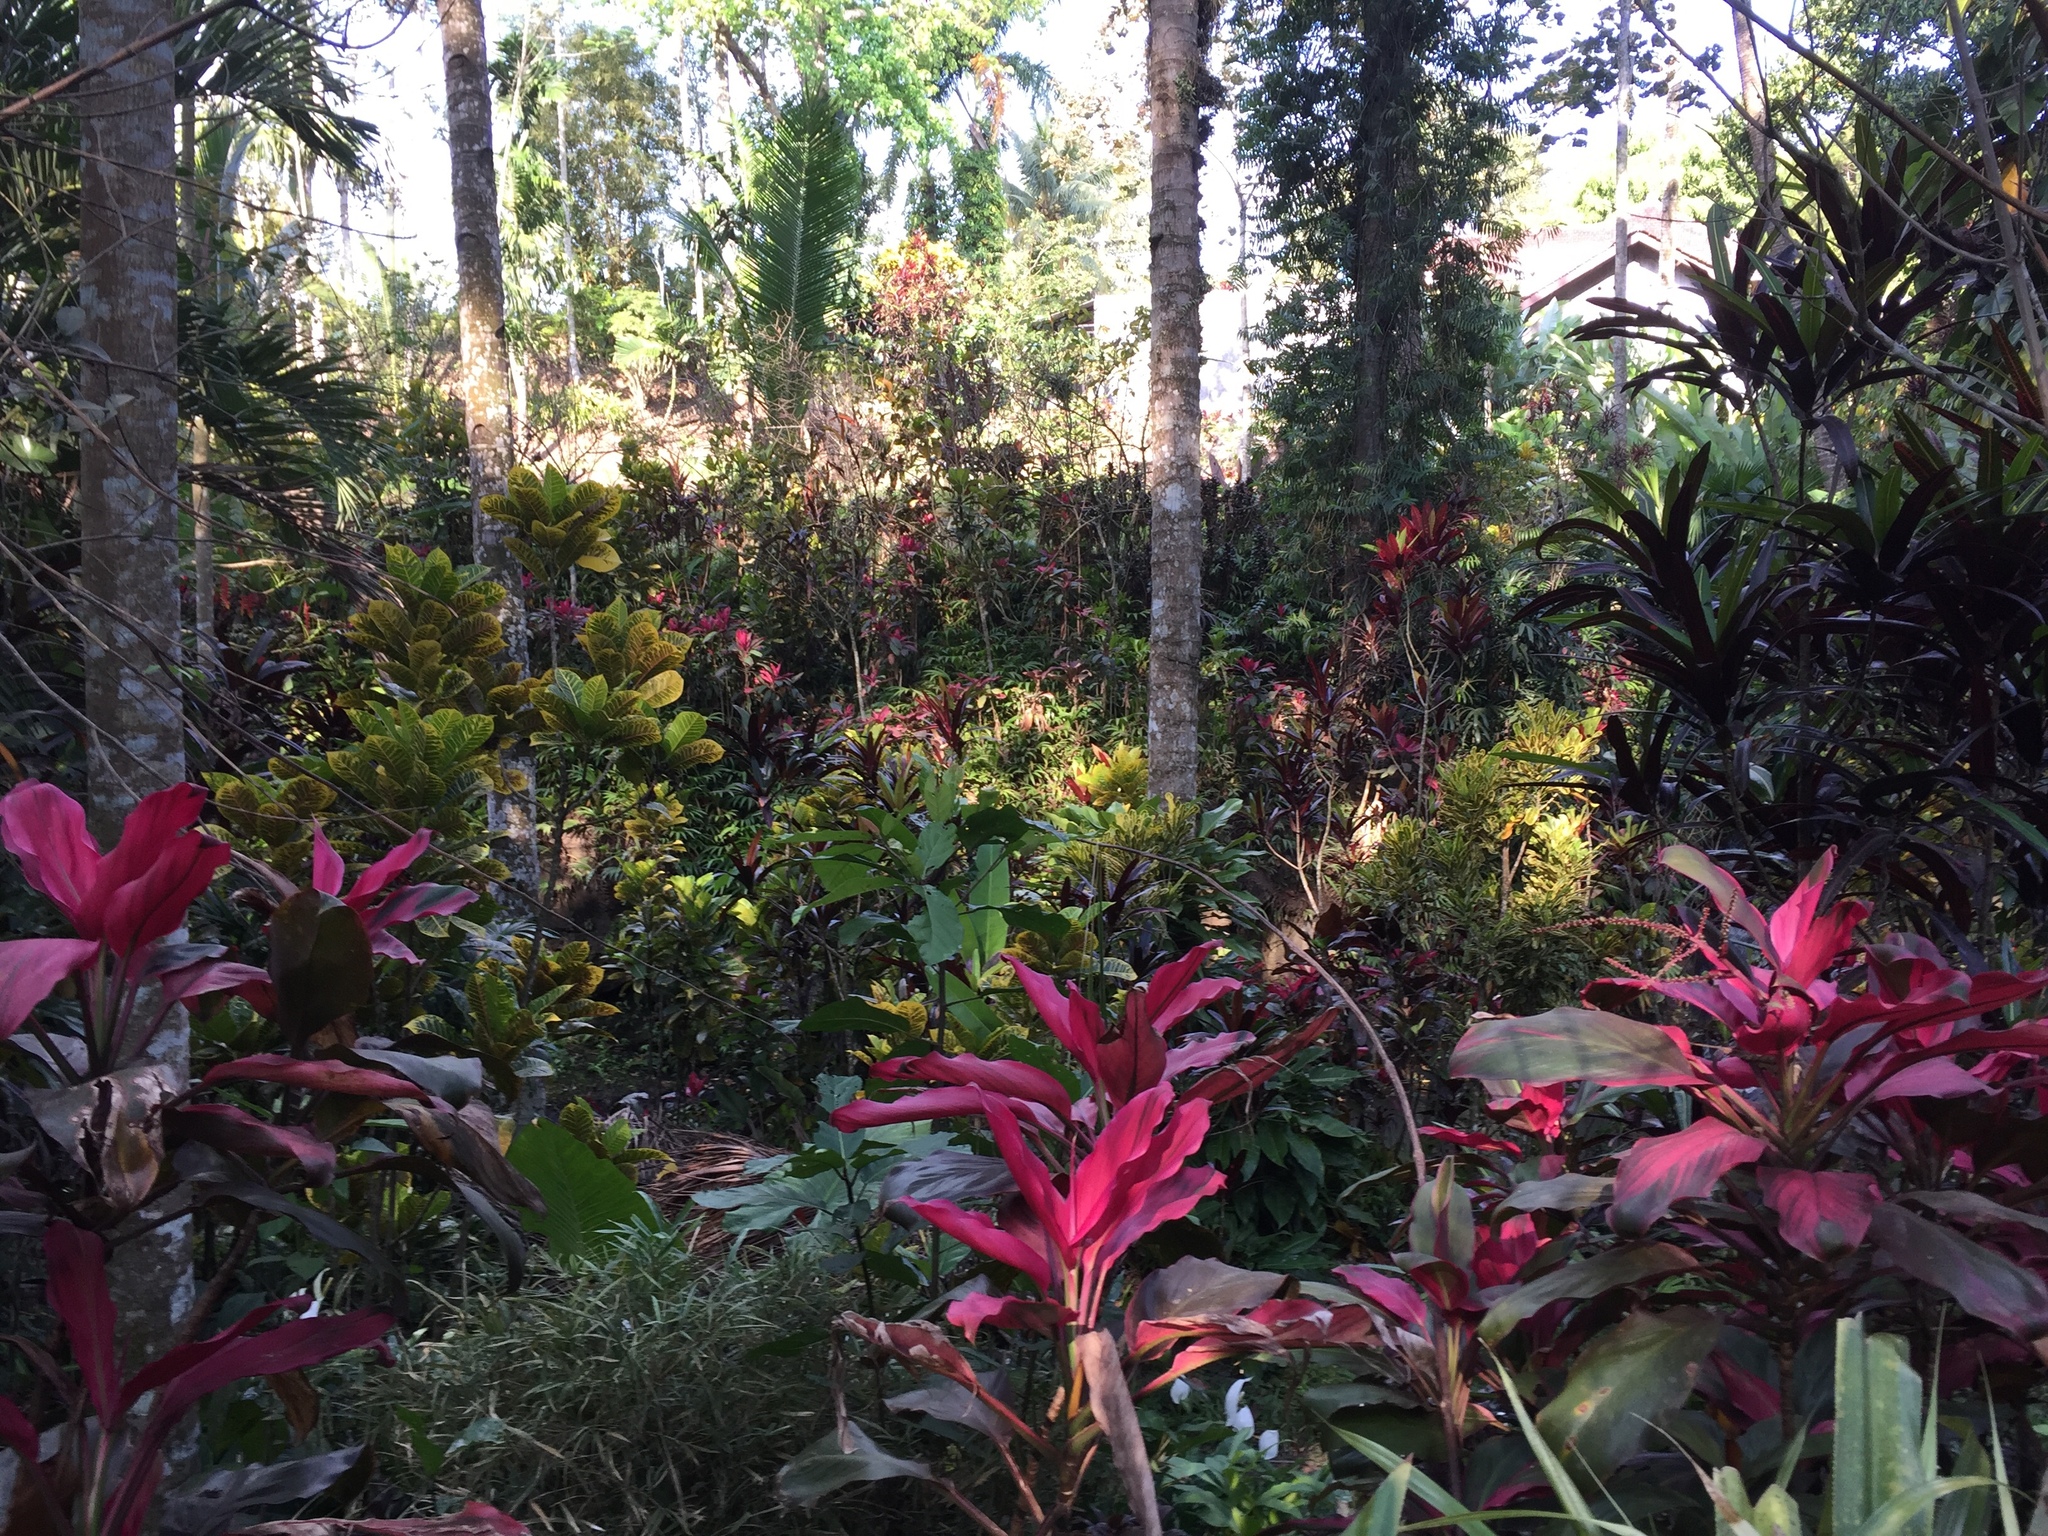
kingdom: Plantae
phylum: Tracheophyta
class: Magnoliopsida
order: Malpighiales
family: Euphorbiaceae
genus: Codiaeum
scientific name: Codiaeum variegatum
